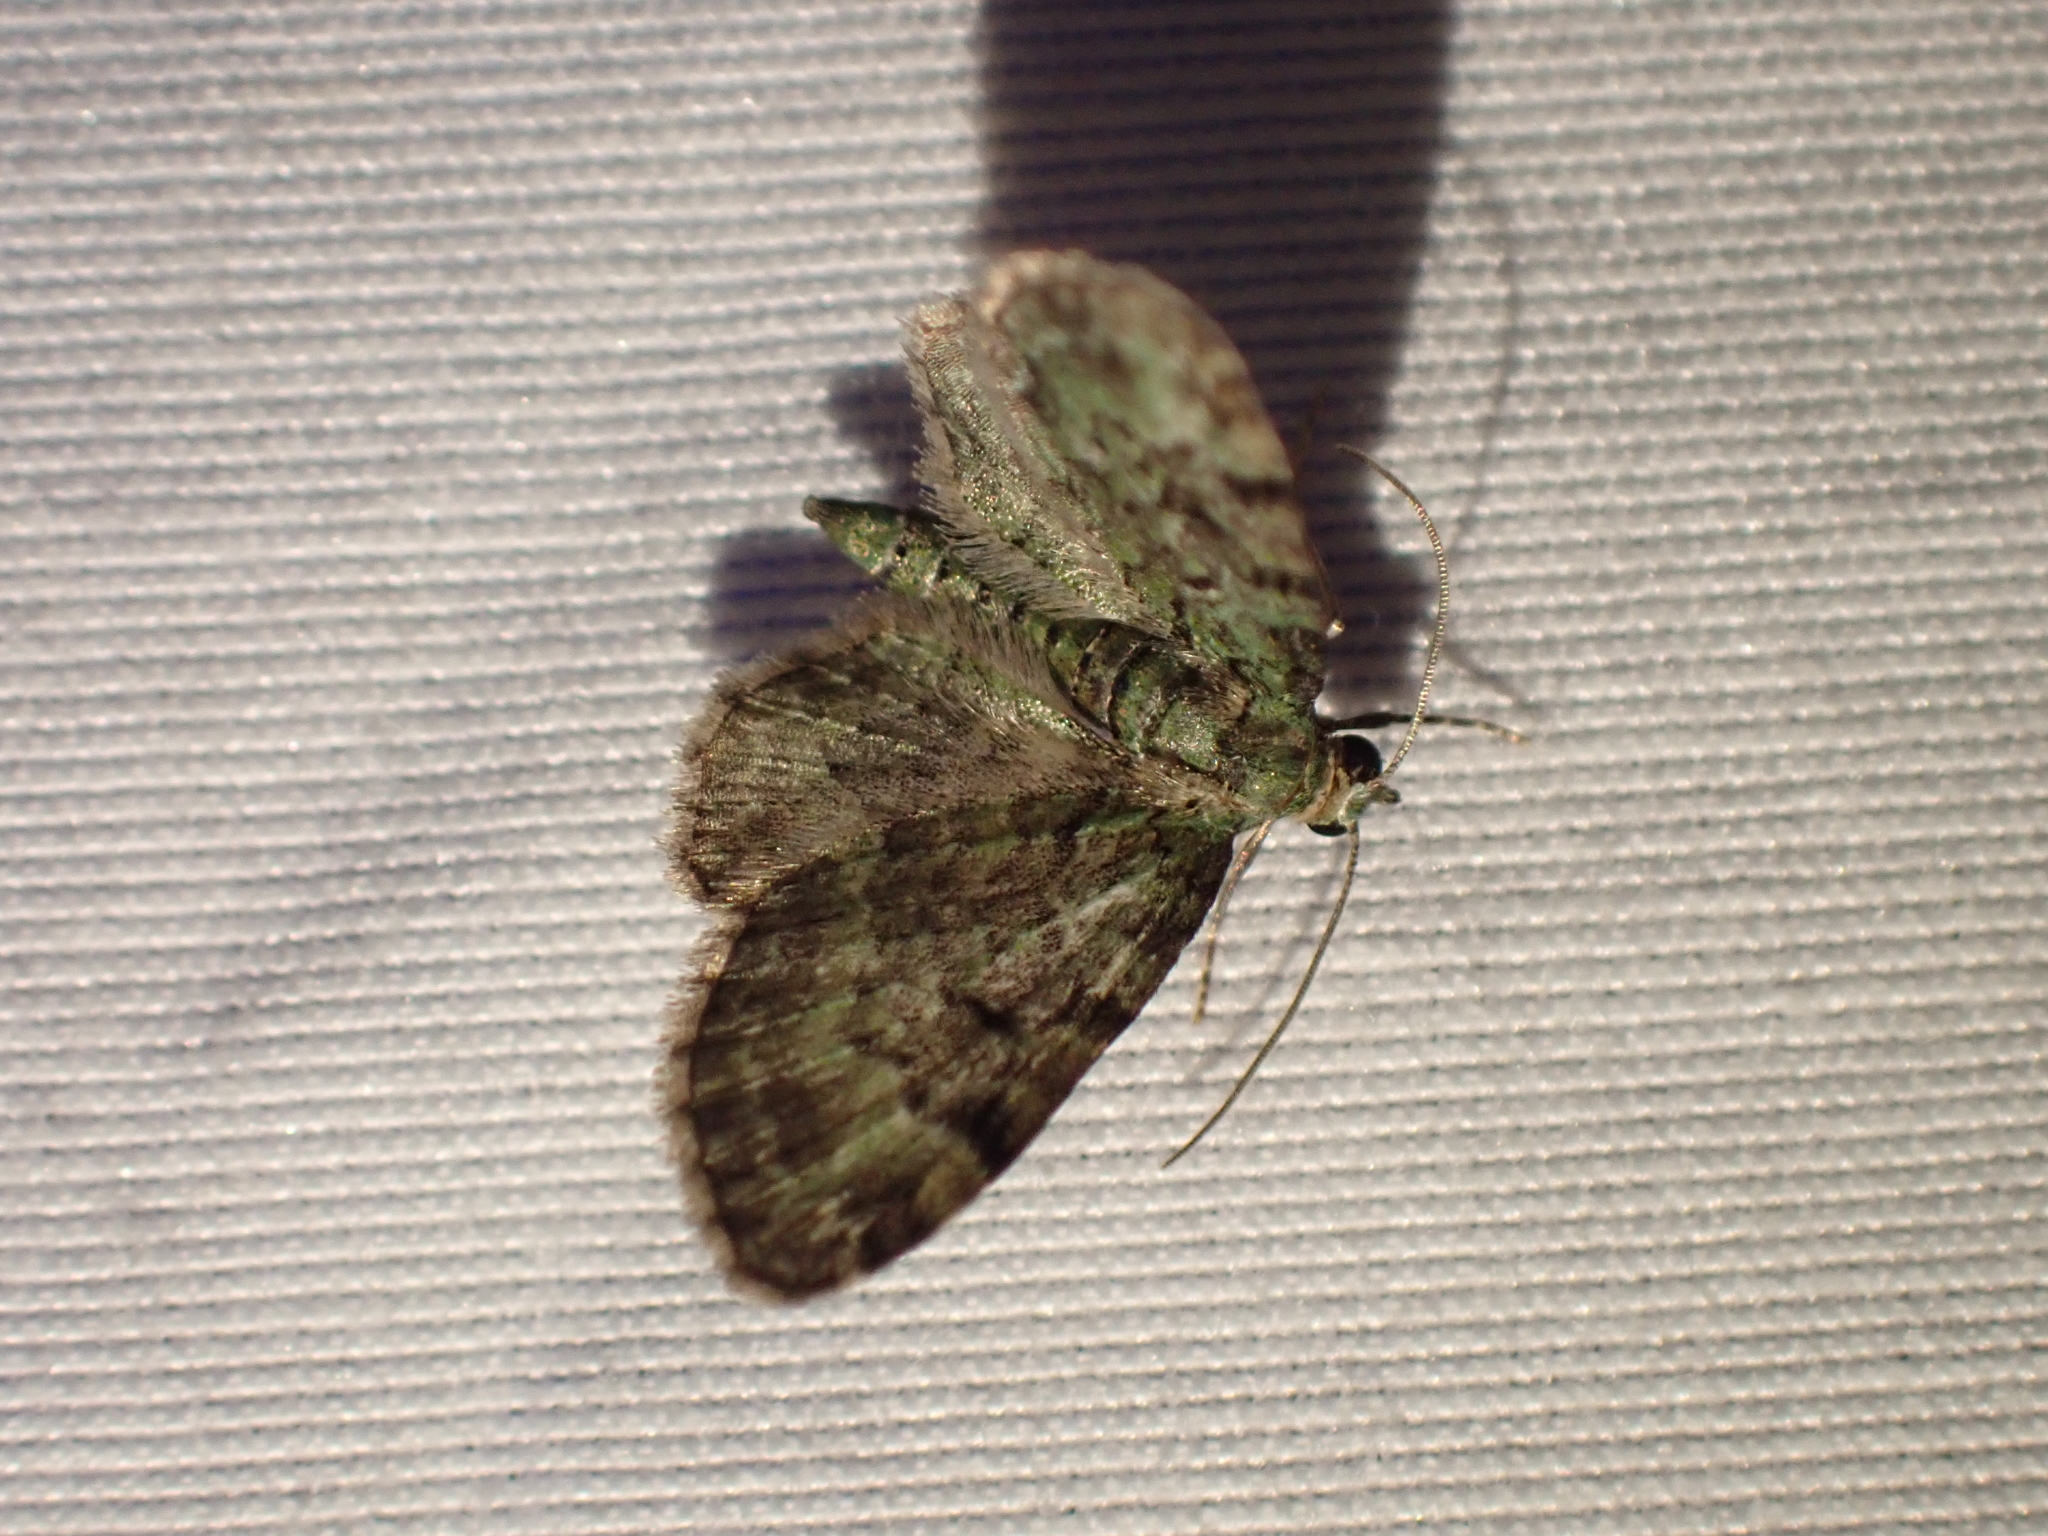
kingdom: Animalia
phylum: Arthropoda
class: Insecta
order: Lepidoptera
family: Geometridae
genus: Pasiphila
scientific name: Pasiphila rectangulata
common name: Green pug
